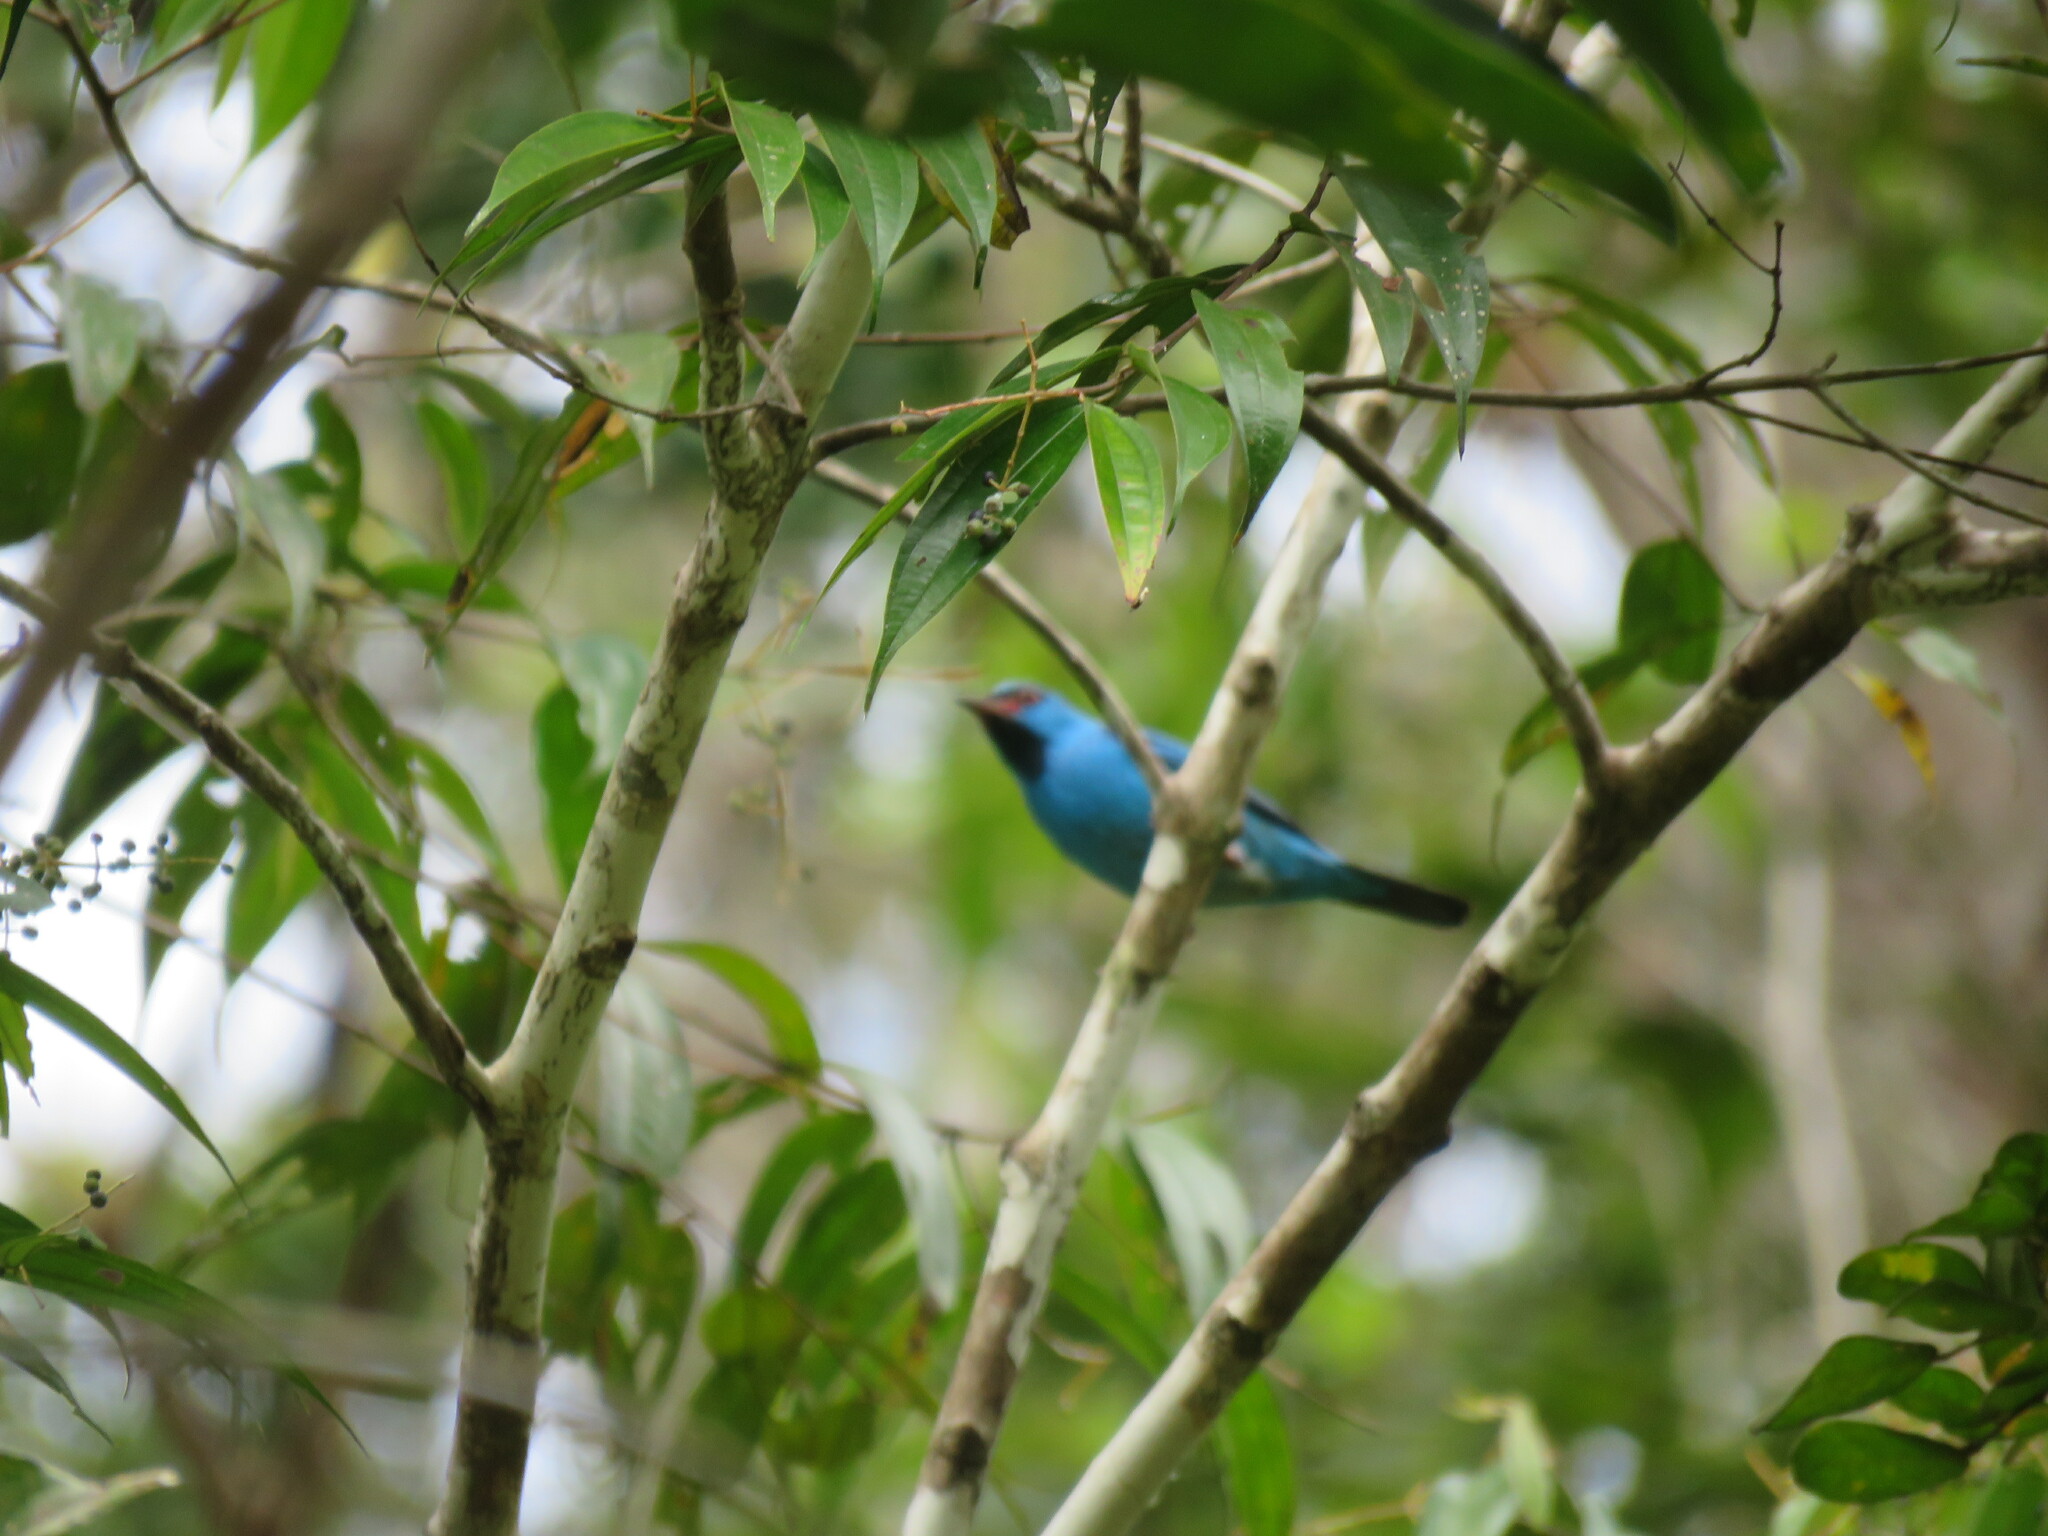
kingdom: Animalia
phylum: Chordata
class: Aves
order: Passeriformes
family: Thraupidae
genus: Dacnis
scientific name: Dacnis cayana
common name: Blue dacnis
